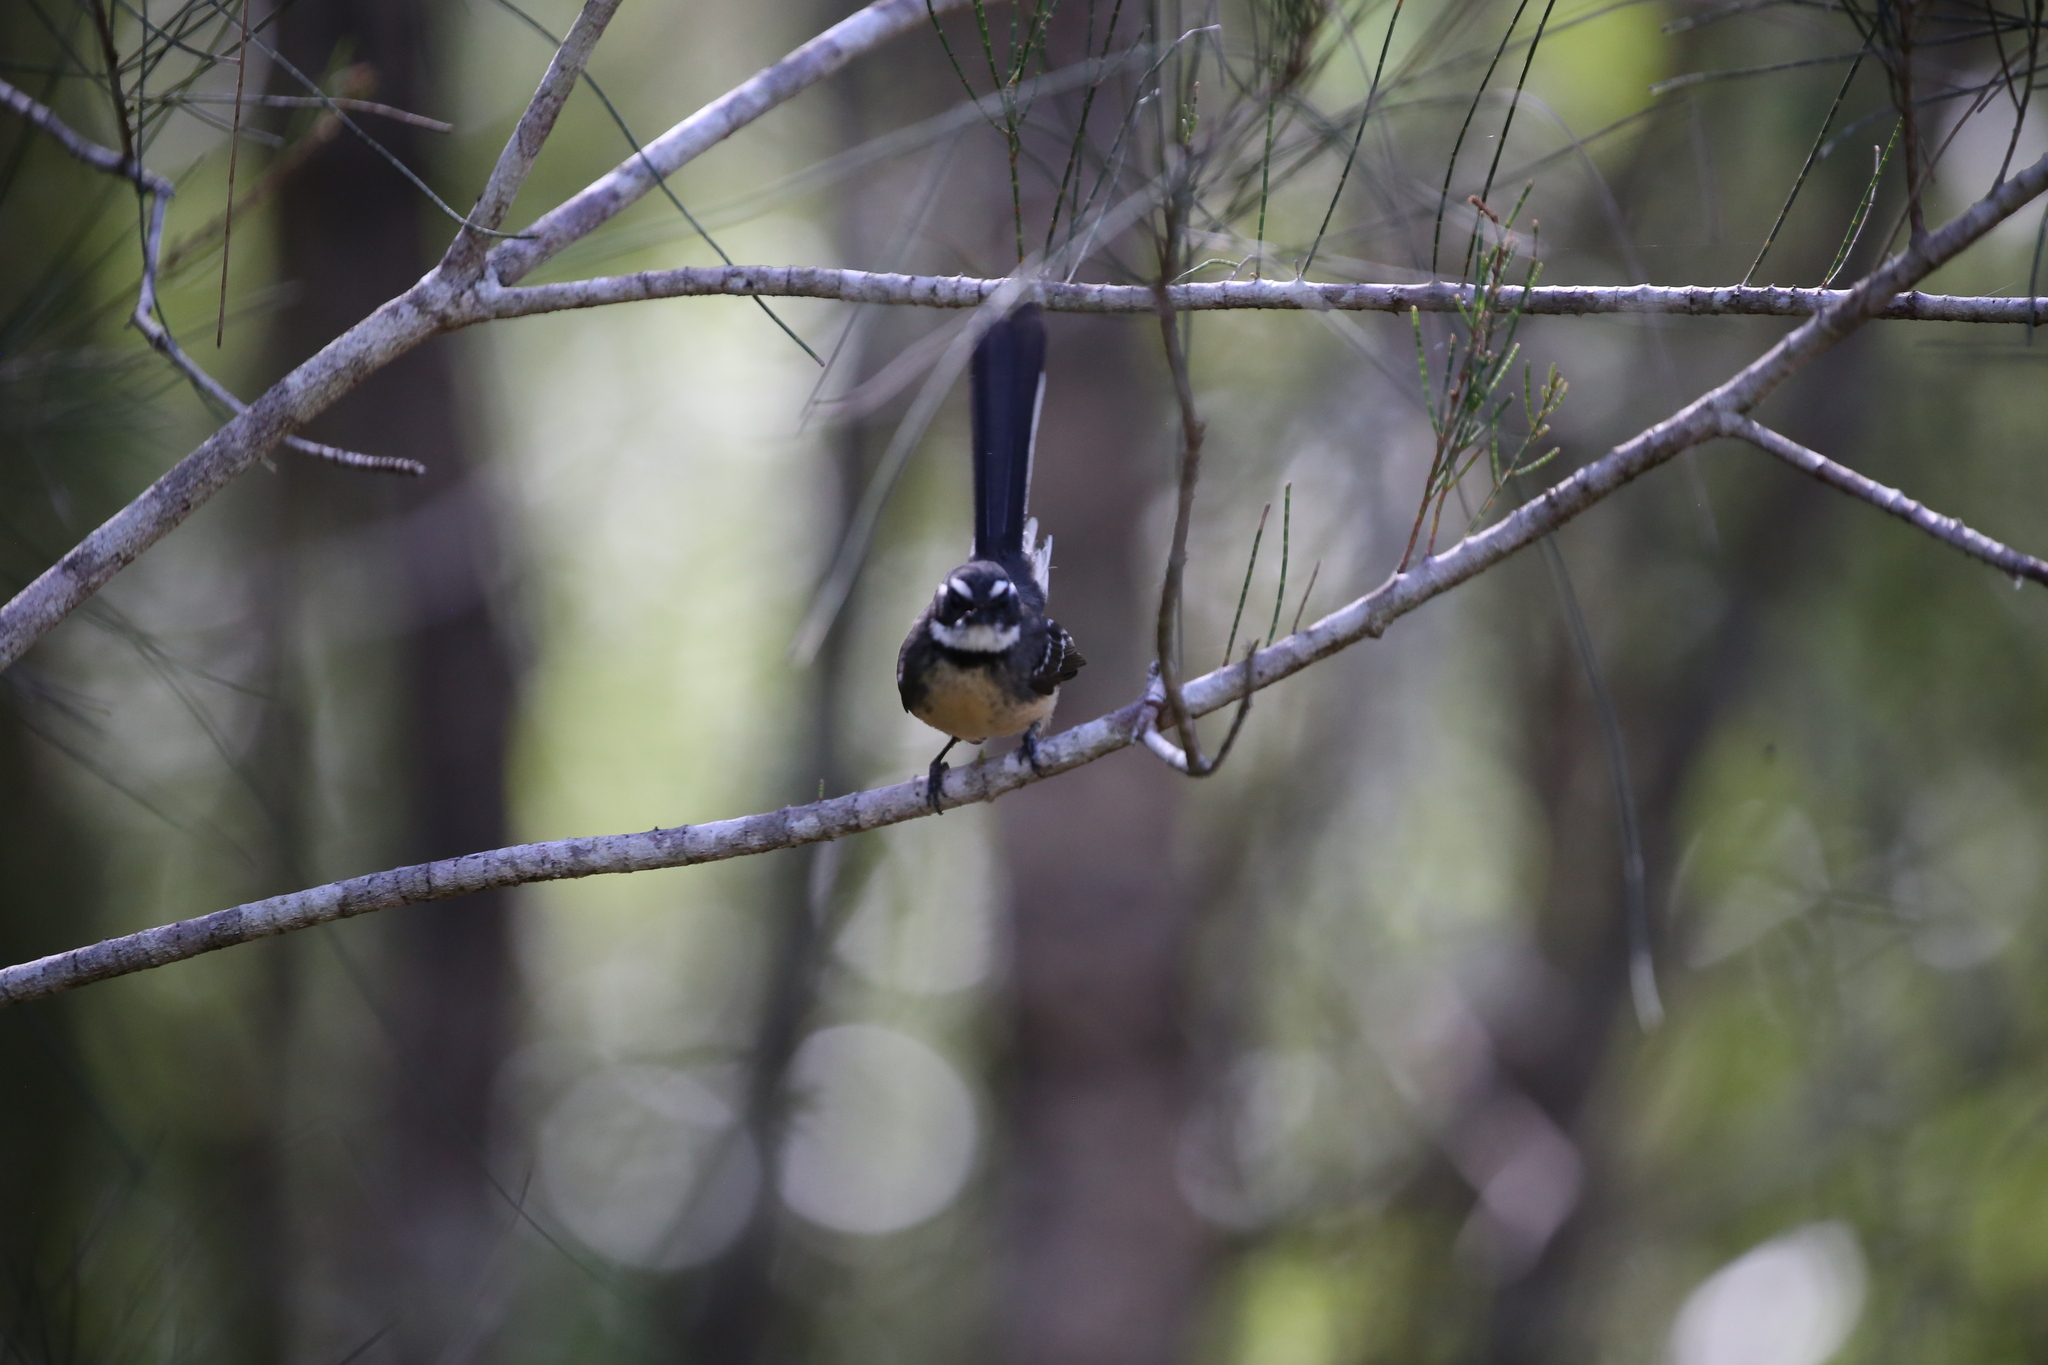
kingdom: Animalia
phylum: Chordata
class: Aves
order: Passeriformes
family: Rhipiduridae
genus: Rhipidura
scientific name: Rhipidura albiscapa
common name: Grey fantail
